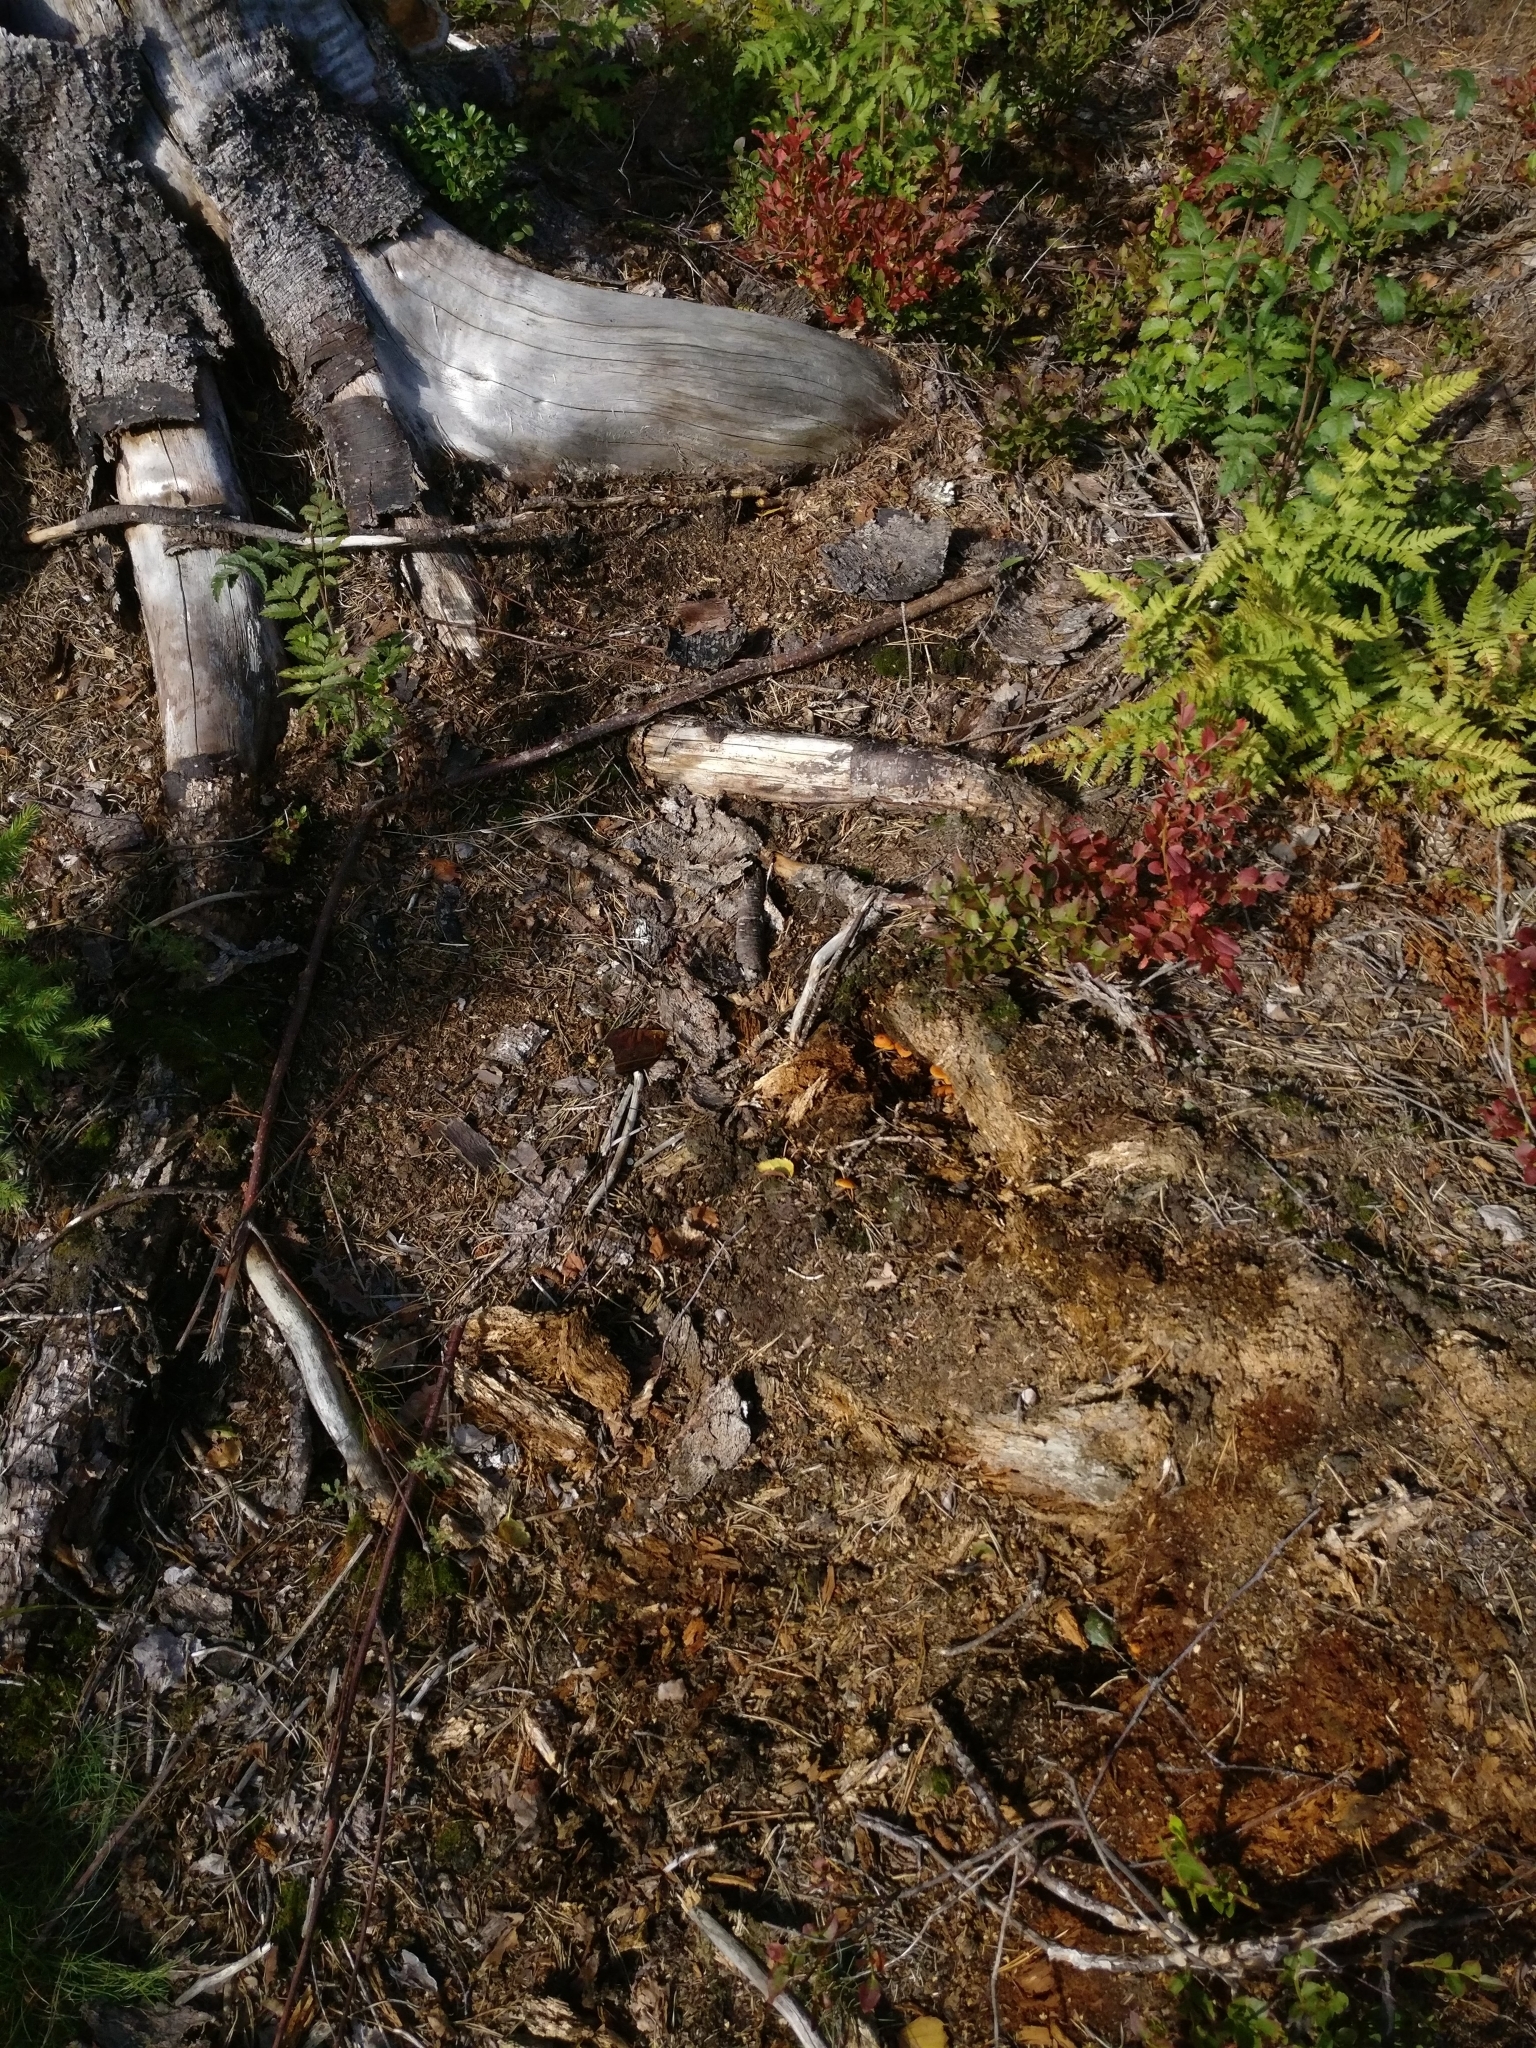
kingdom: Fungi
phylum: Basidiomycota
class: Agaricomycetes
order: Agaricales
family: Mycenaceae
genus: Xeromphalina
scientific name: Xeromphalina campanella
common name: Pinewood gingertail
